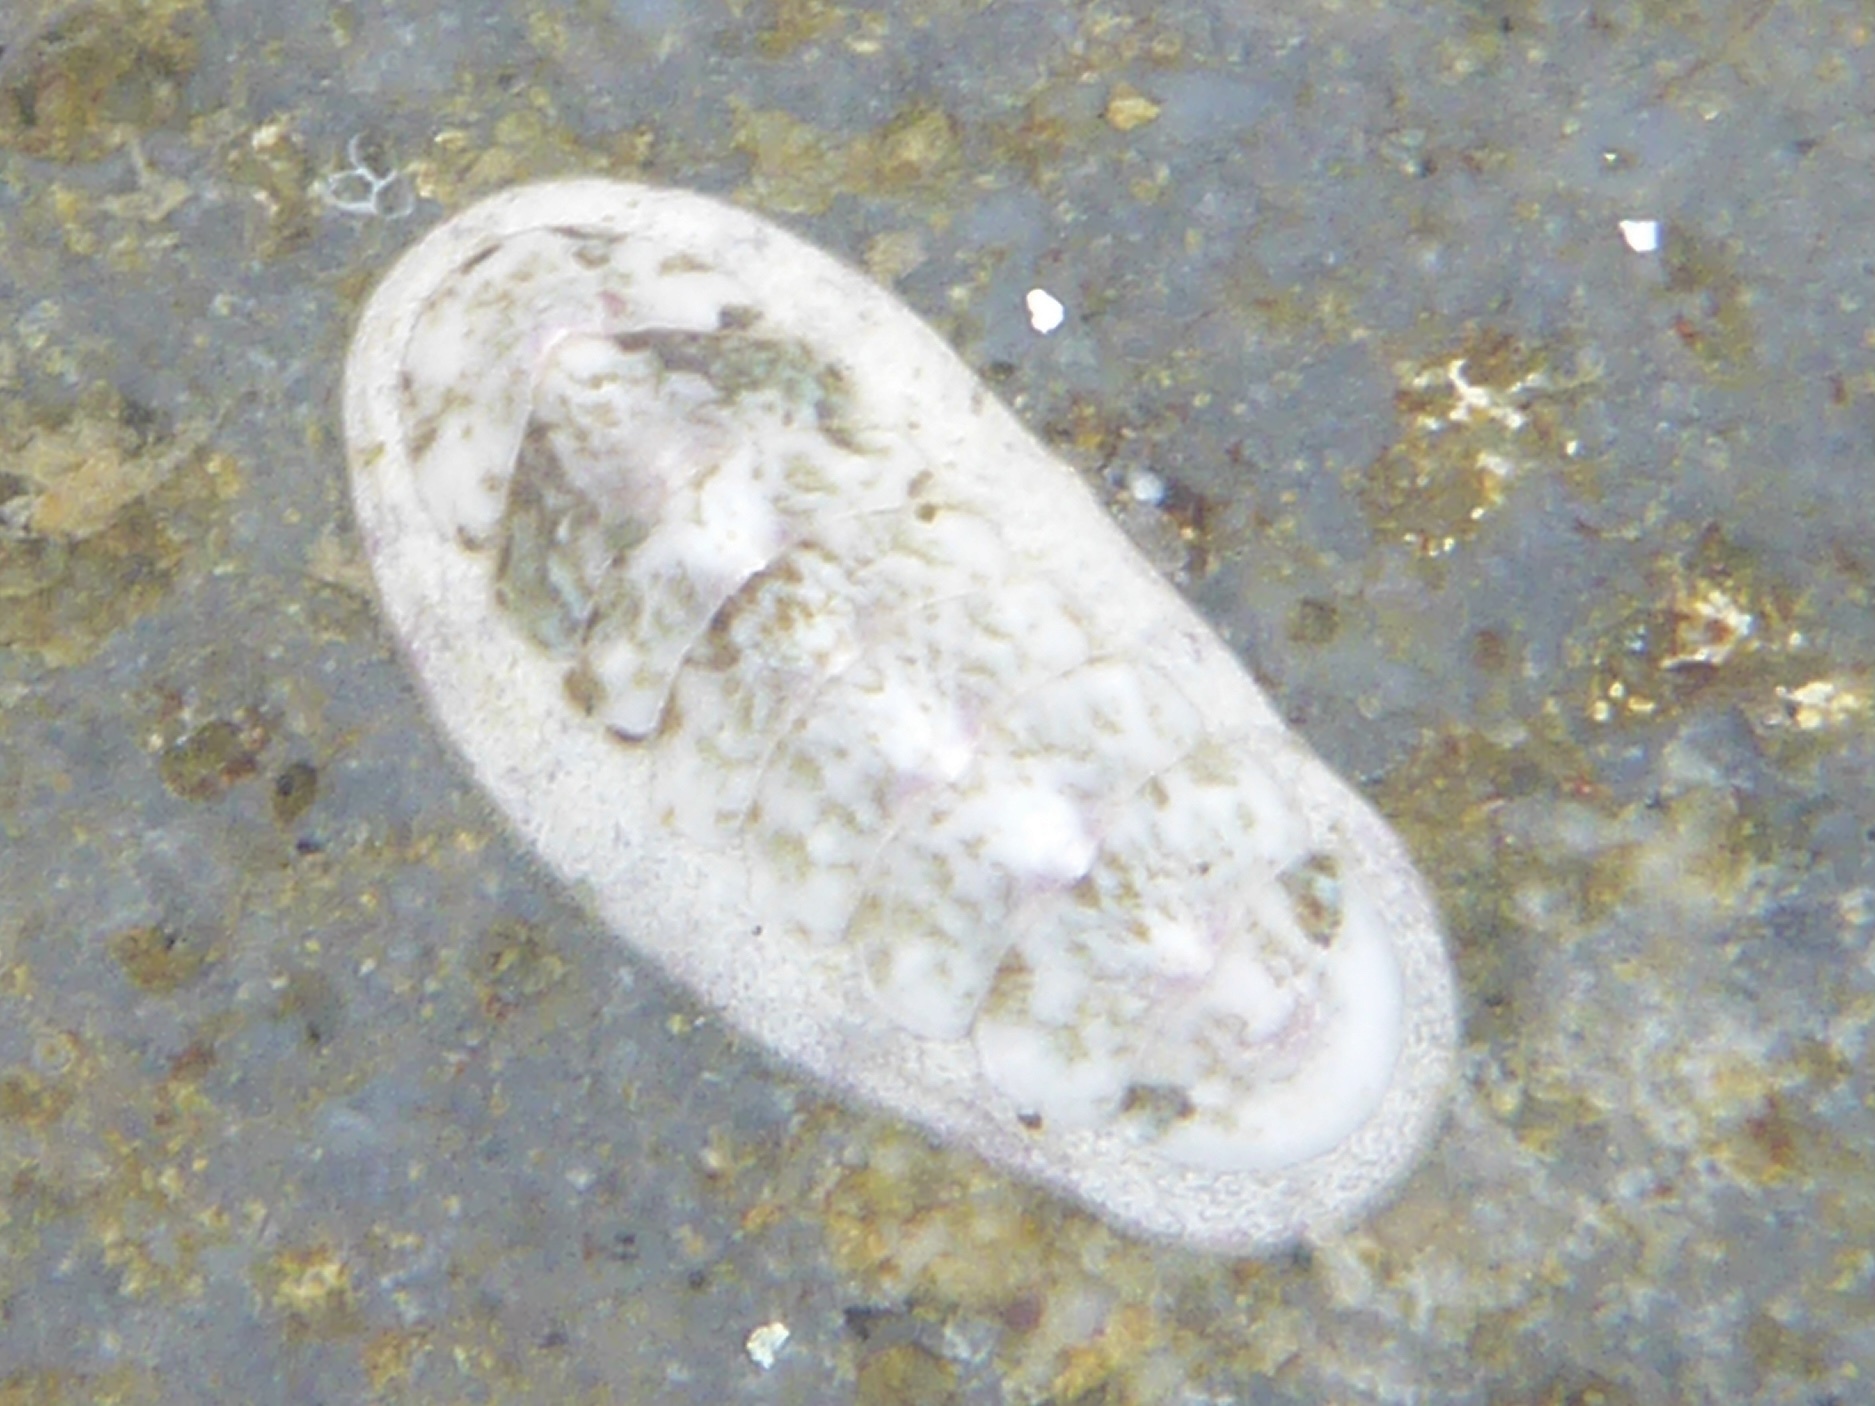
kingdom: Animalia
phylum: Mollusca
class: Polyplacophora
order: Chitonida
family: Ischnochitonidae
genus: Stenoplax
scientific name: Stenoplax heathiana
